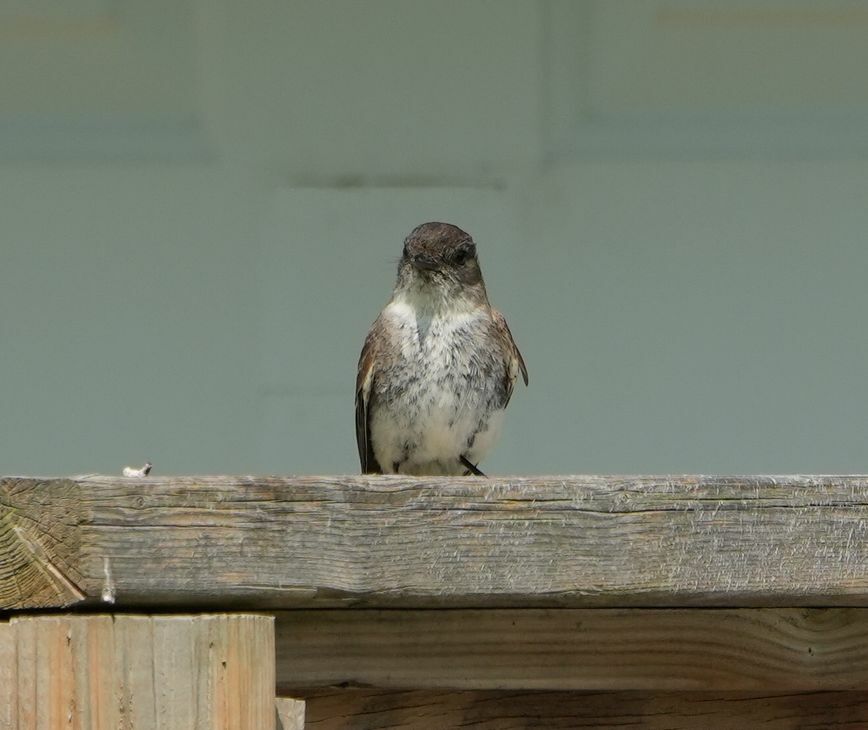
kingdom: Animalia
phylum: Chordata
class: Aves
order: Passeriformes
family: Tyrannidae
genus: Sayornis
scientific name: Sayornis phoebe
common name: Eastern phoebe
